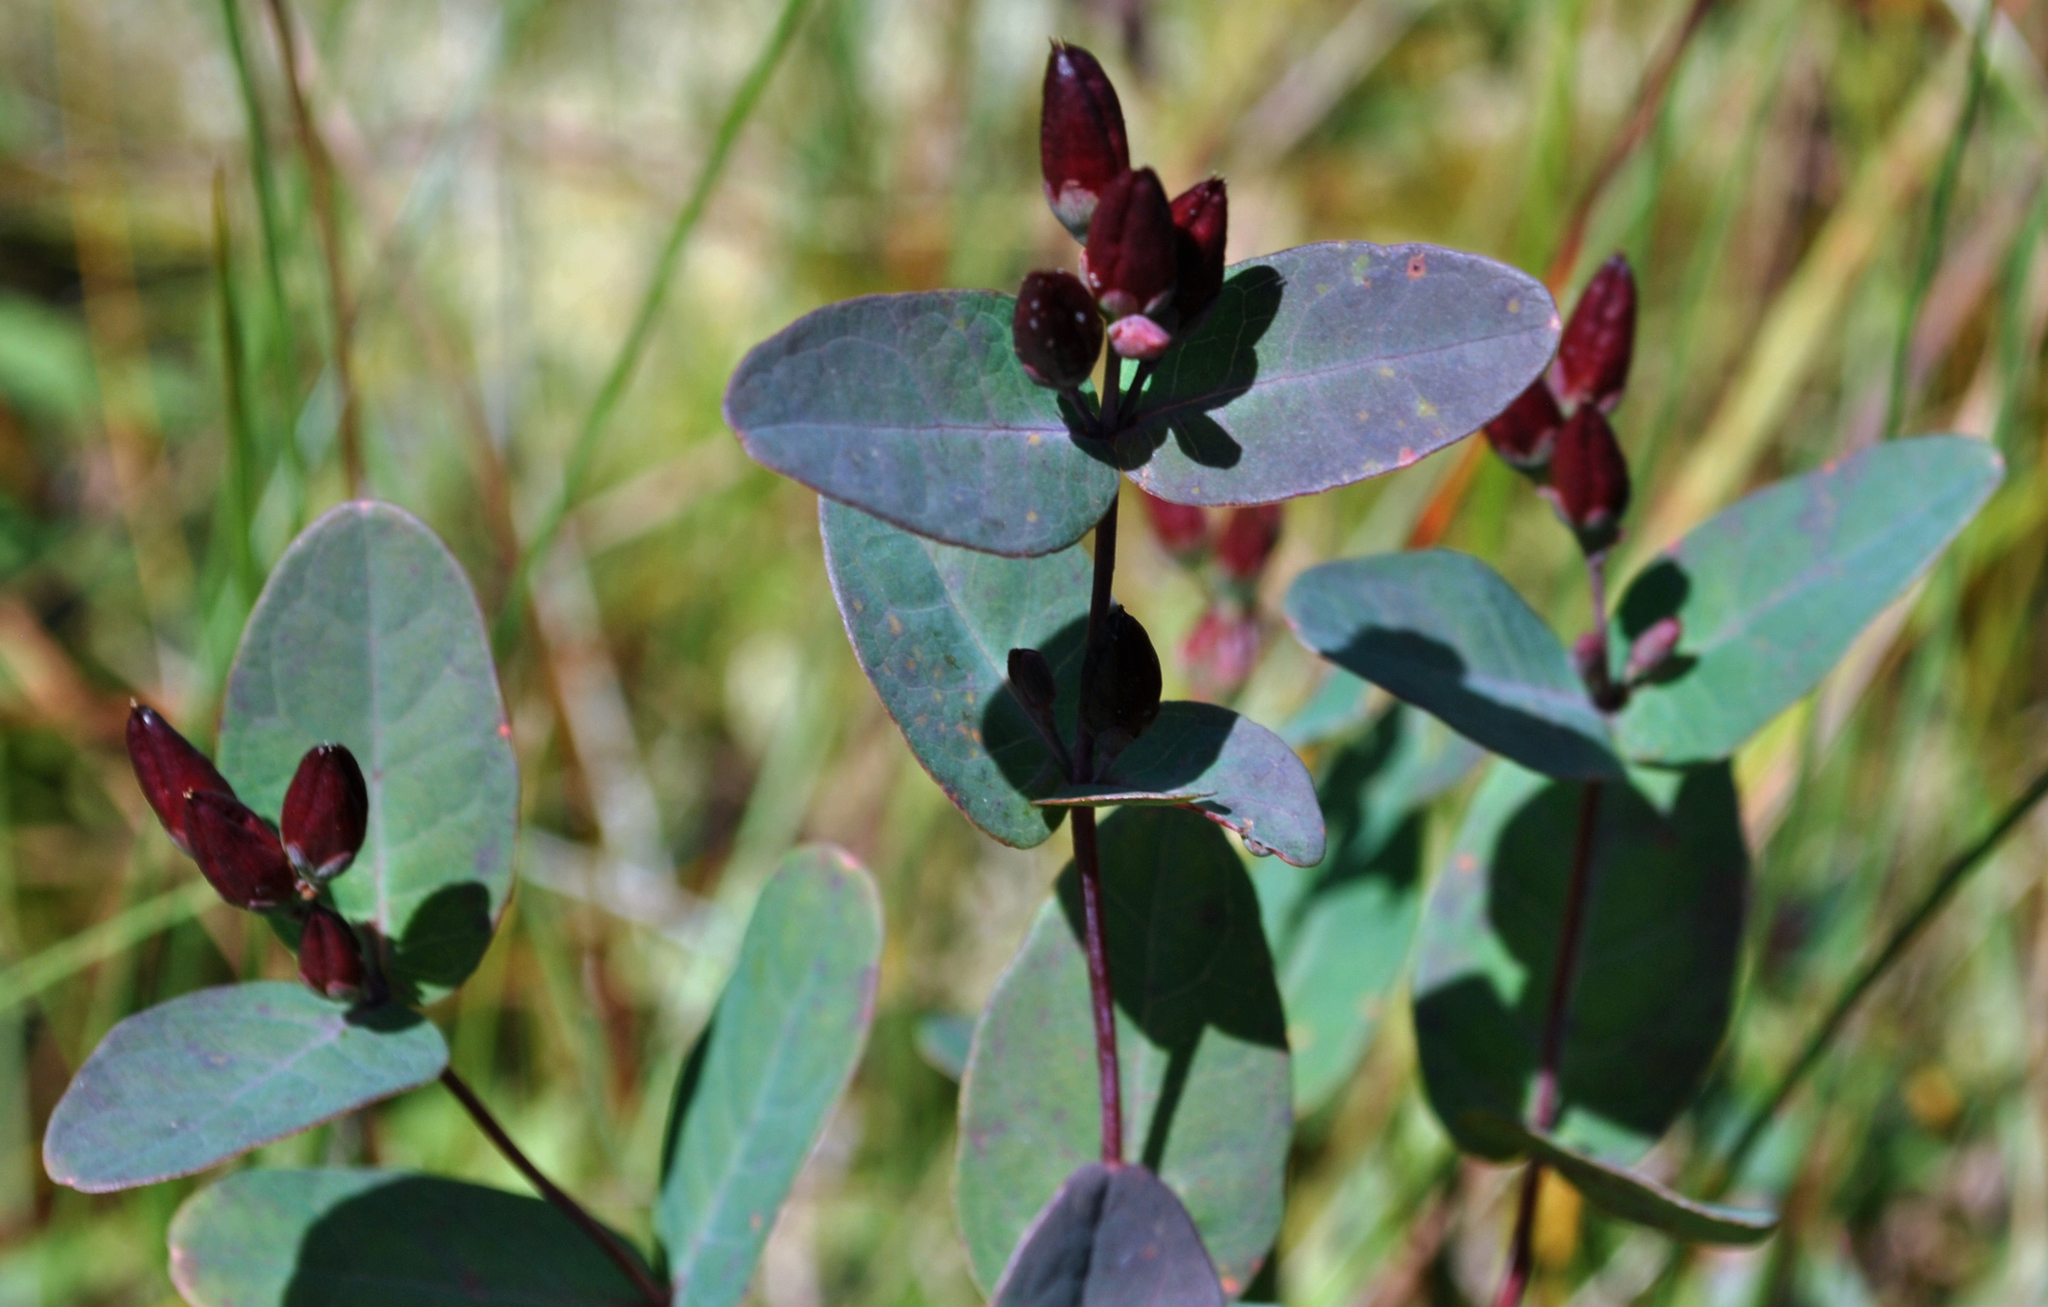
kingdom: Plantae
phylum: Tracheophyta
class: Magnoliopsida
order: Malpighiales
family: Hypericaceae
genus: Triadenum
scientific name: Triadenum fraseri
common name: Fraser's marsh st. johnswort
